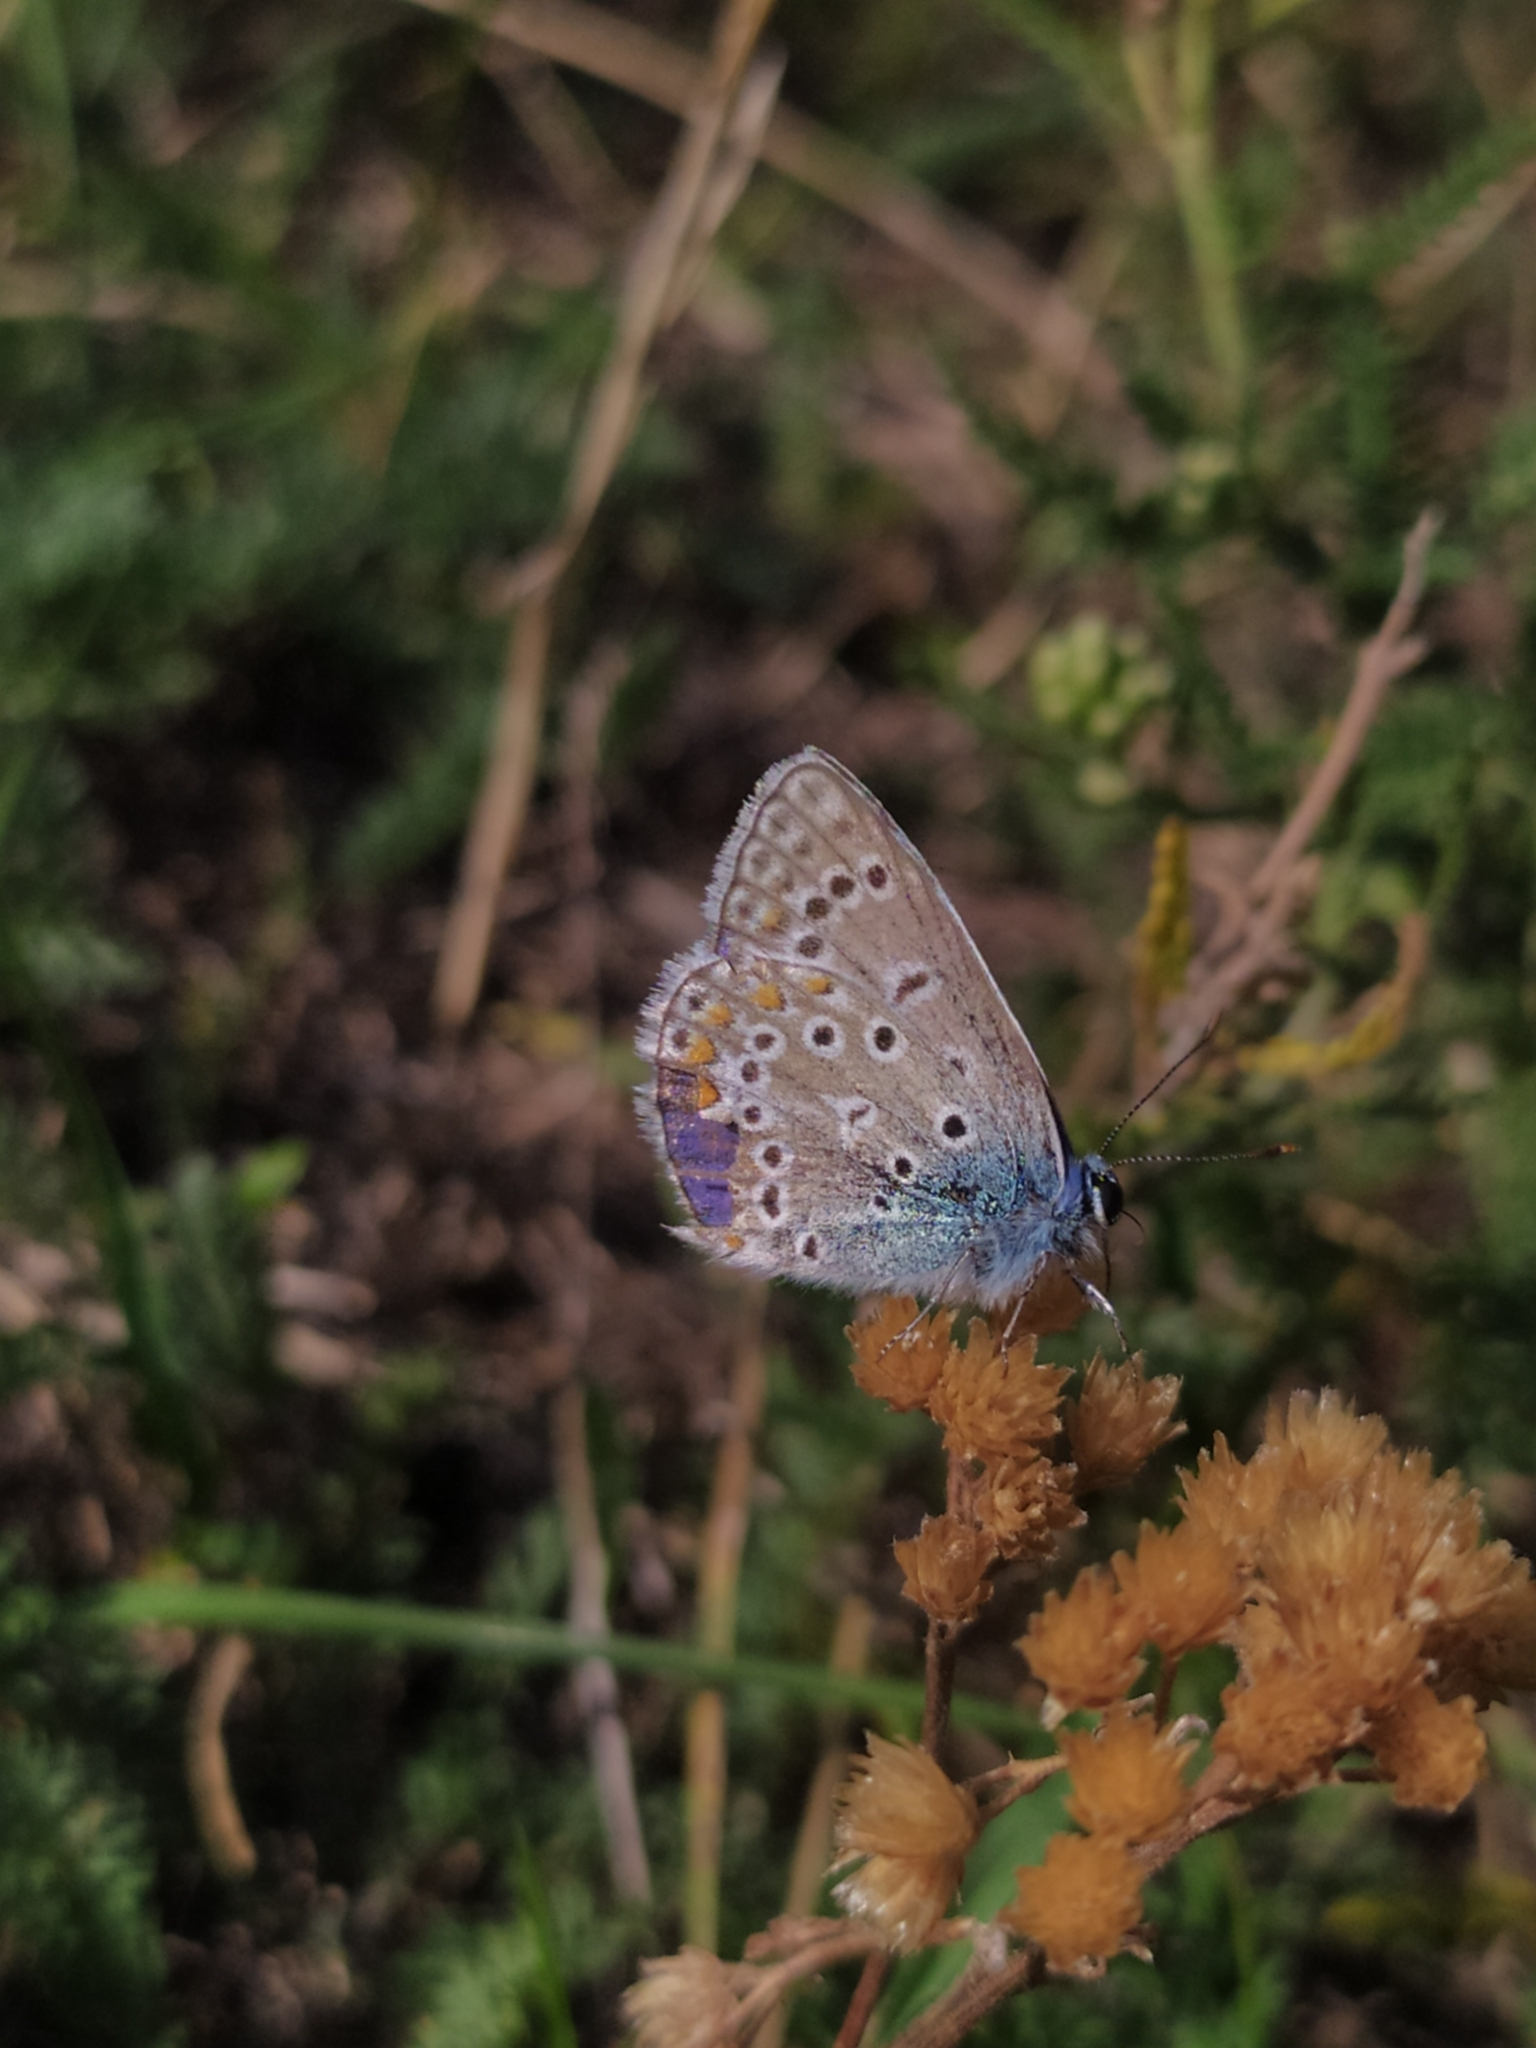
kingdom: Animalia
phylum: Arthropoda
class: Insecta
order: Lepidoptera
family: Lycaenidae
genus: Polyommatus
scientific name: Polyommatus icarus
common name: Common blue
